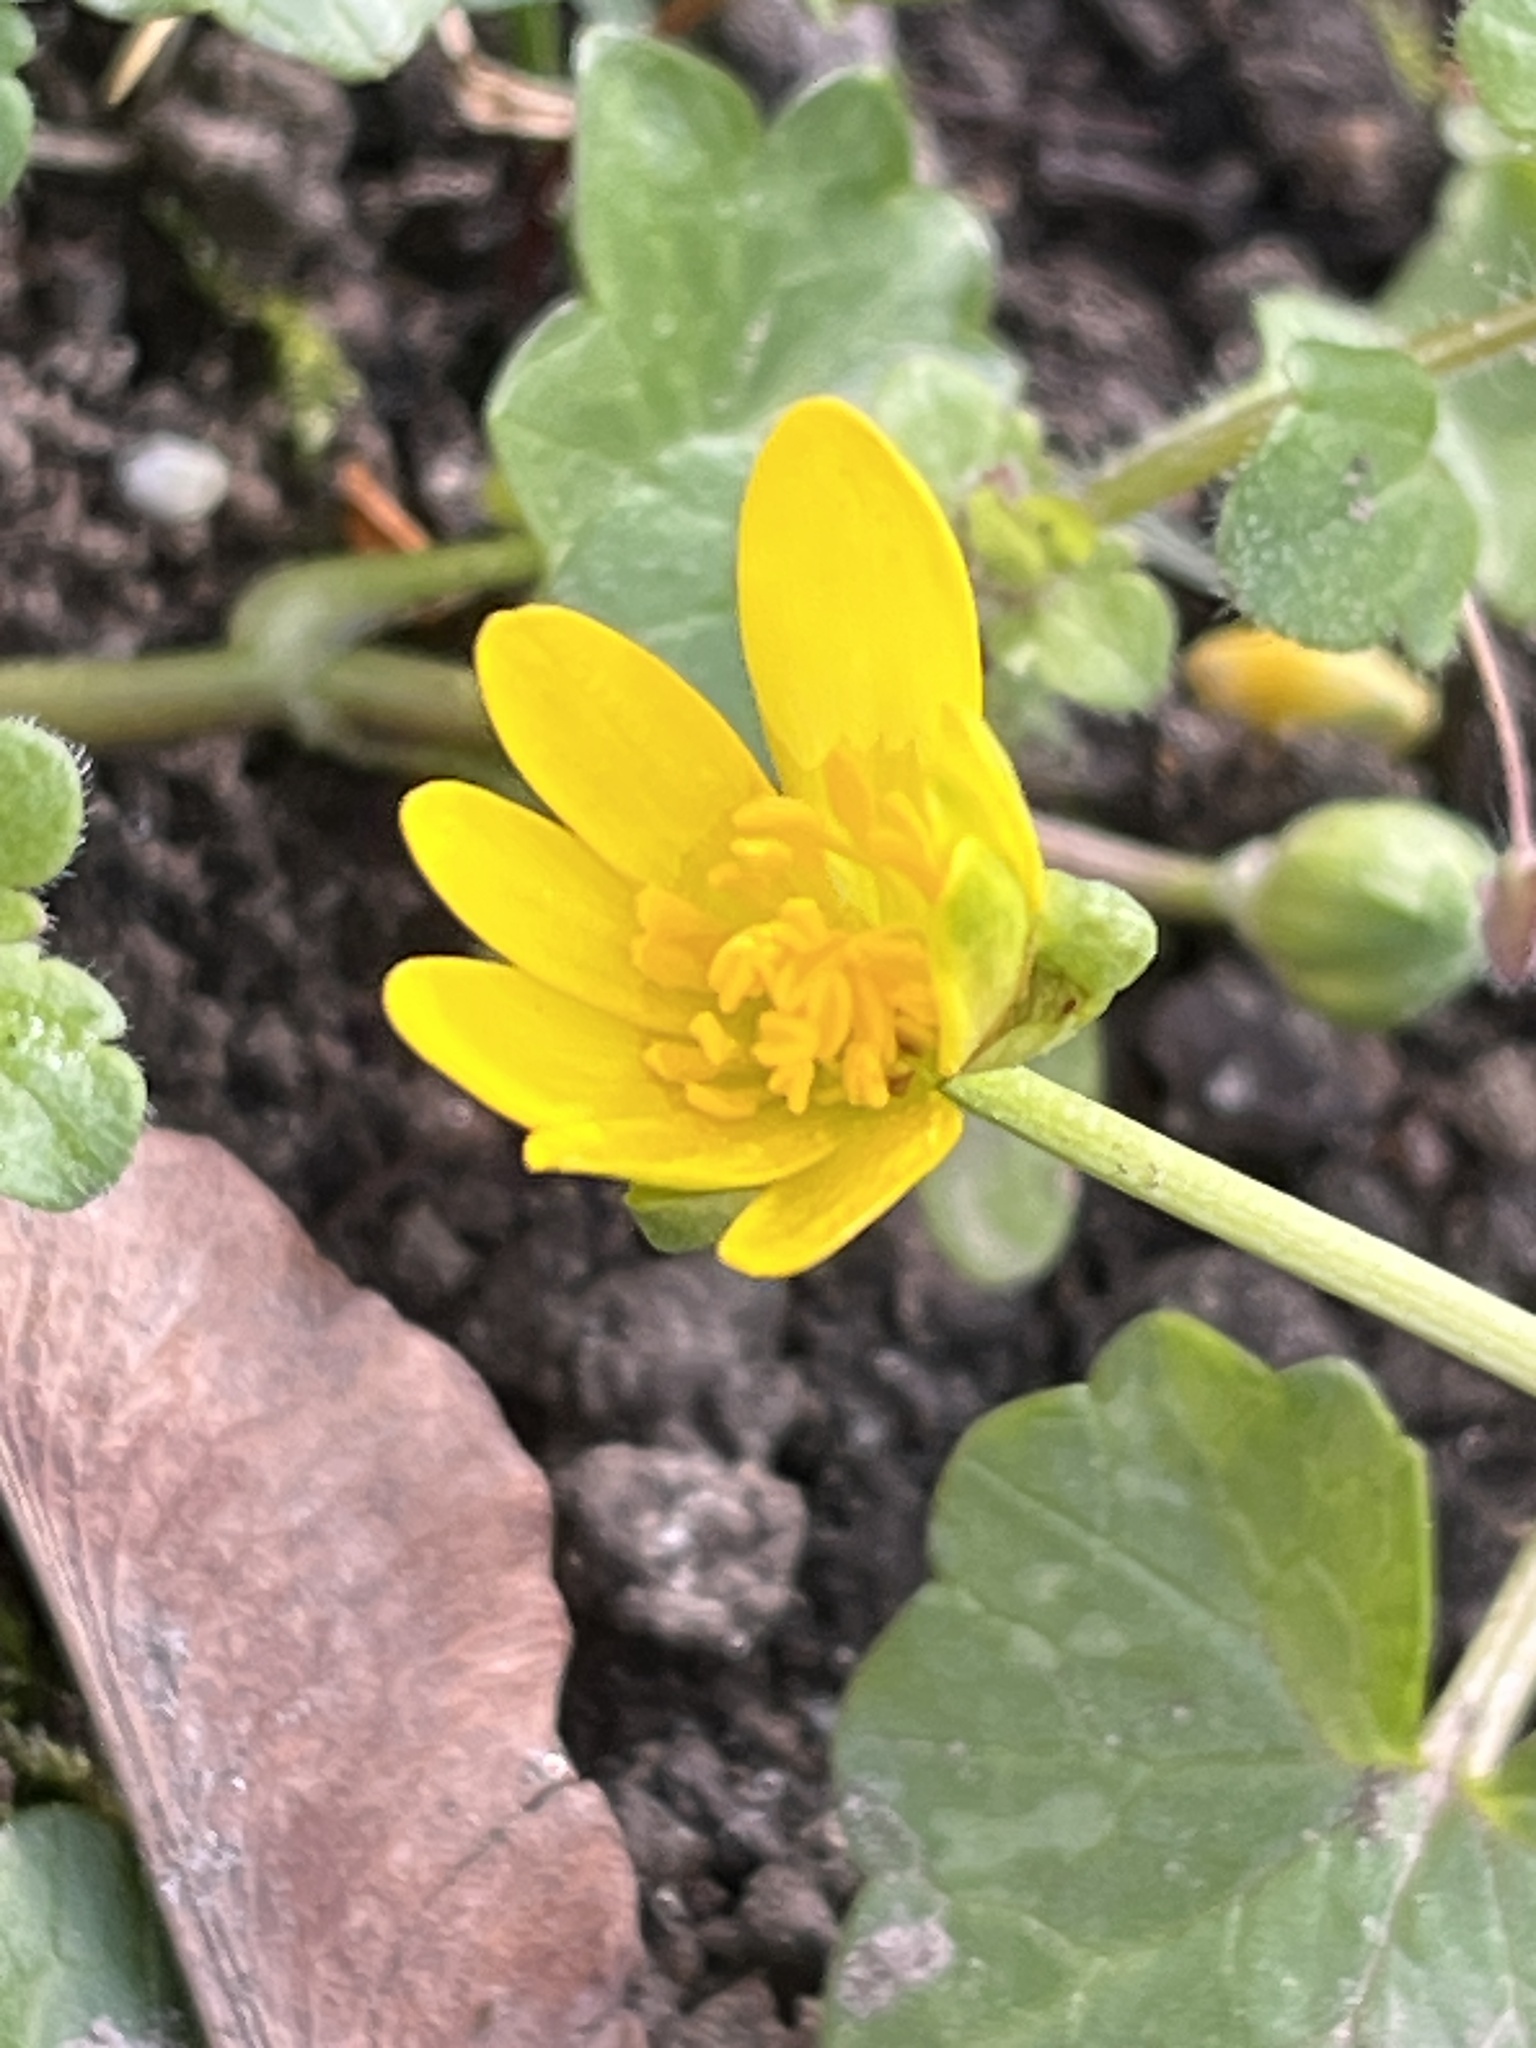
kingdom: Plantae
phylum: Tracheophyta
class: Magnoliopsida
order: Ranunculales
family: Ranunculaceae
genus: Ficaria
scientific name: Ficaria verna
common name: Lesser celandine
